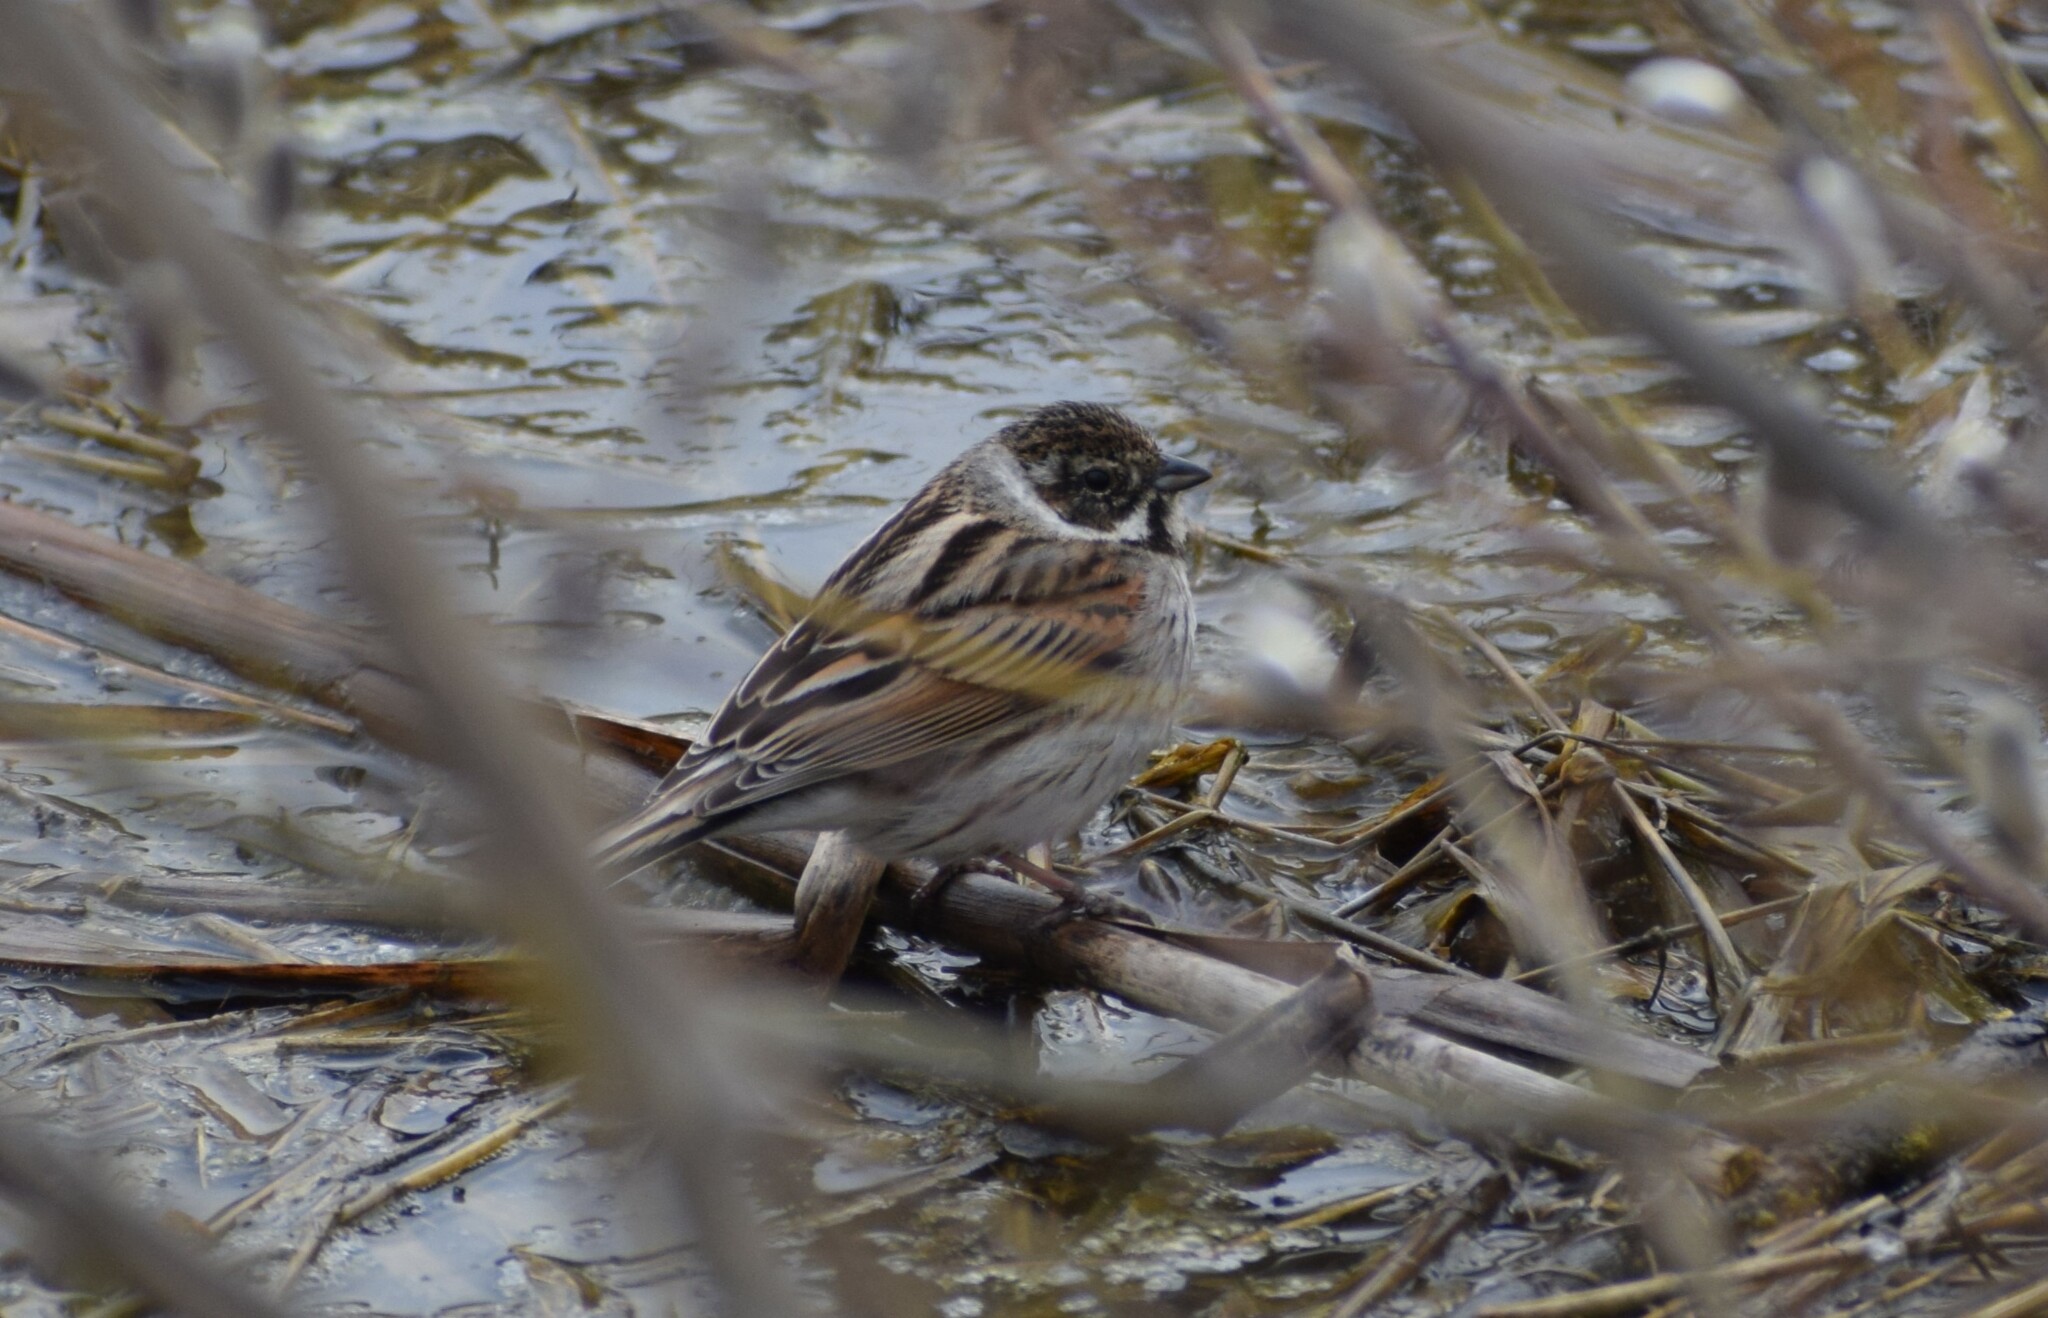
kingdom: Animalia
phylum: Chordata
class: Aves
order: Passeriformes
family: Emberizidae
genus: Emberiza
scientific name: Emberiza schoeniclus
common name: Reed bunting
